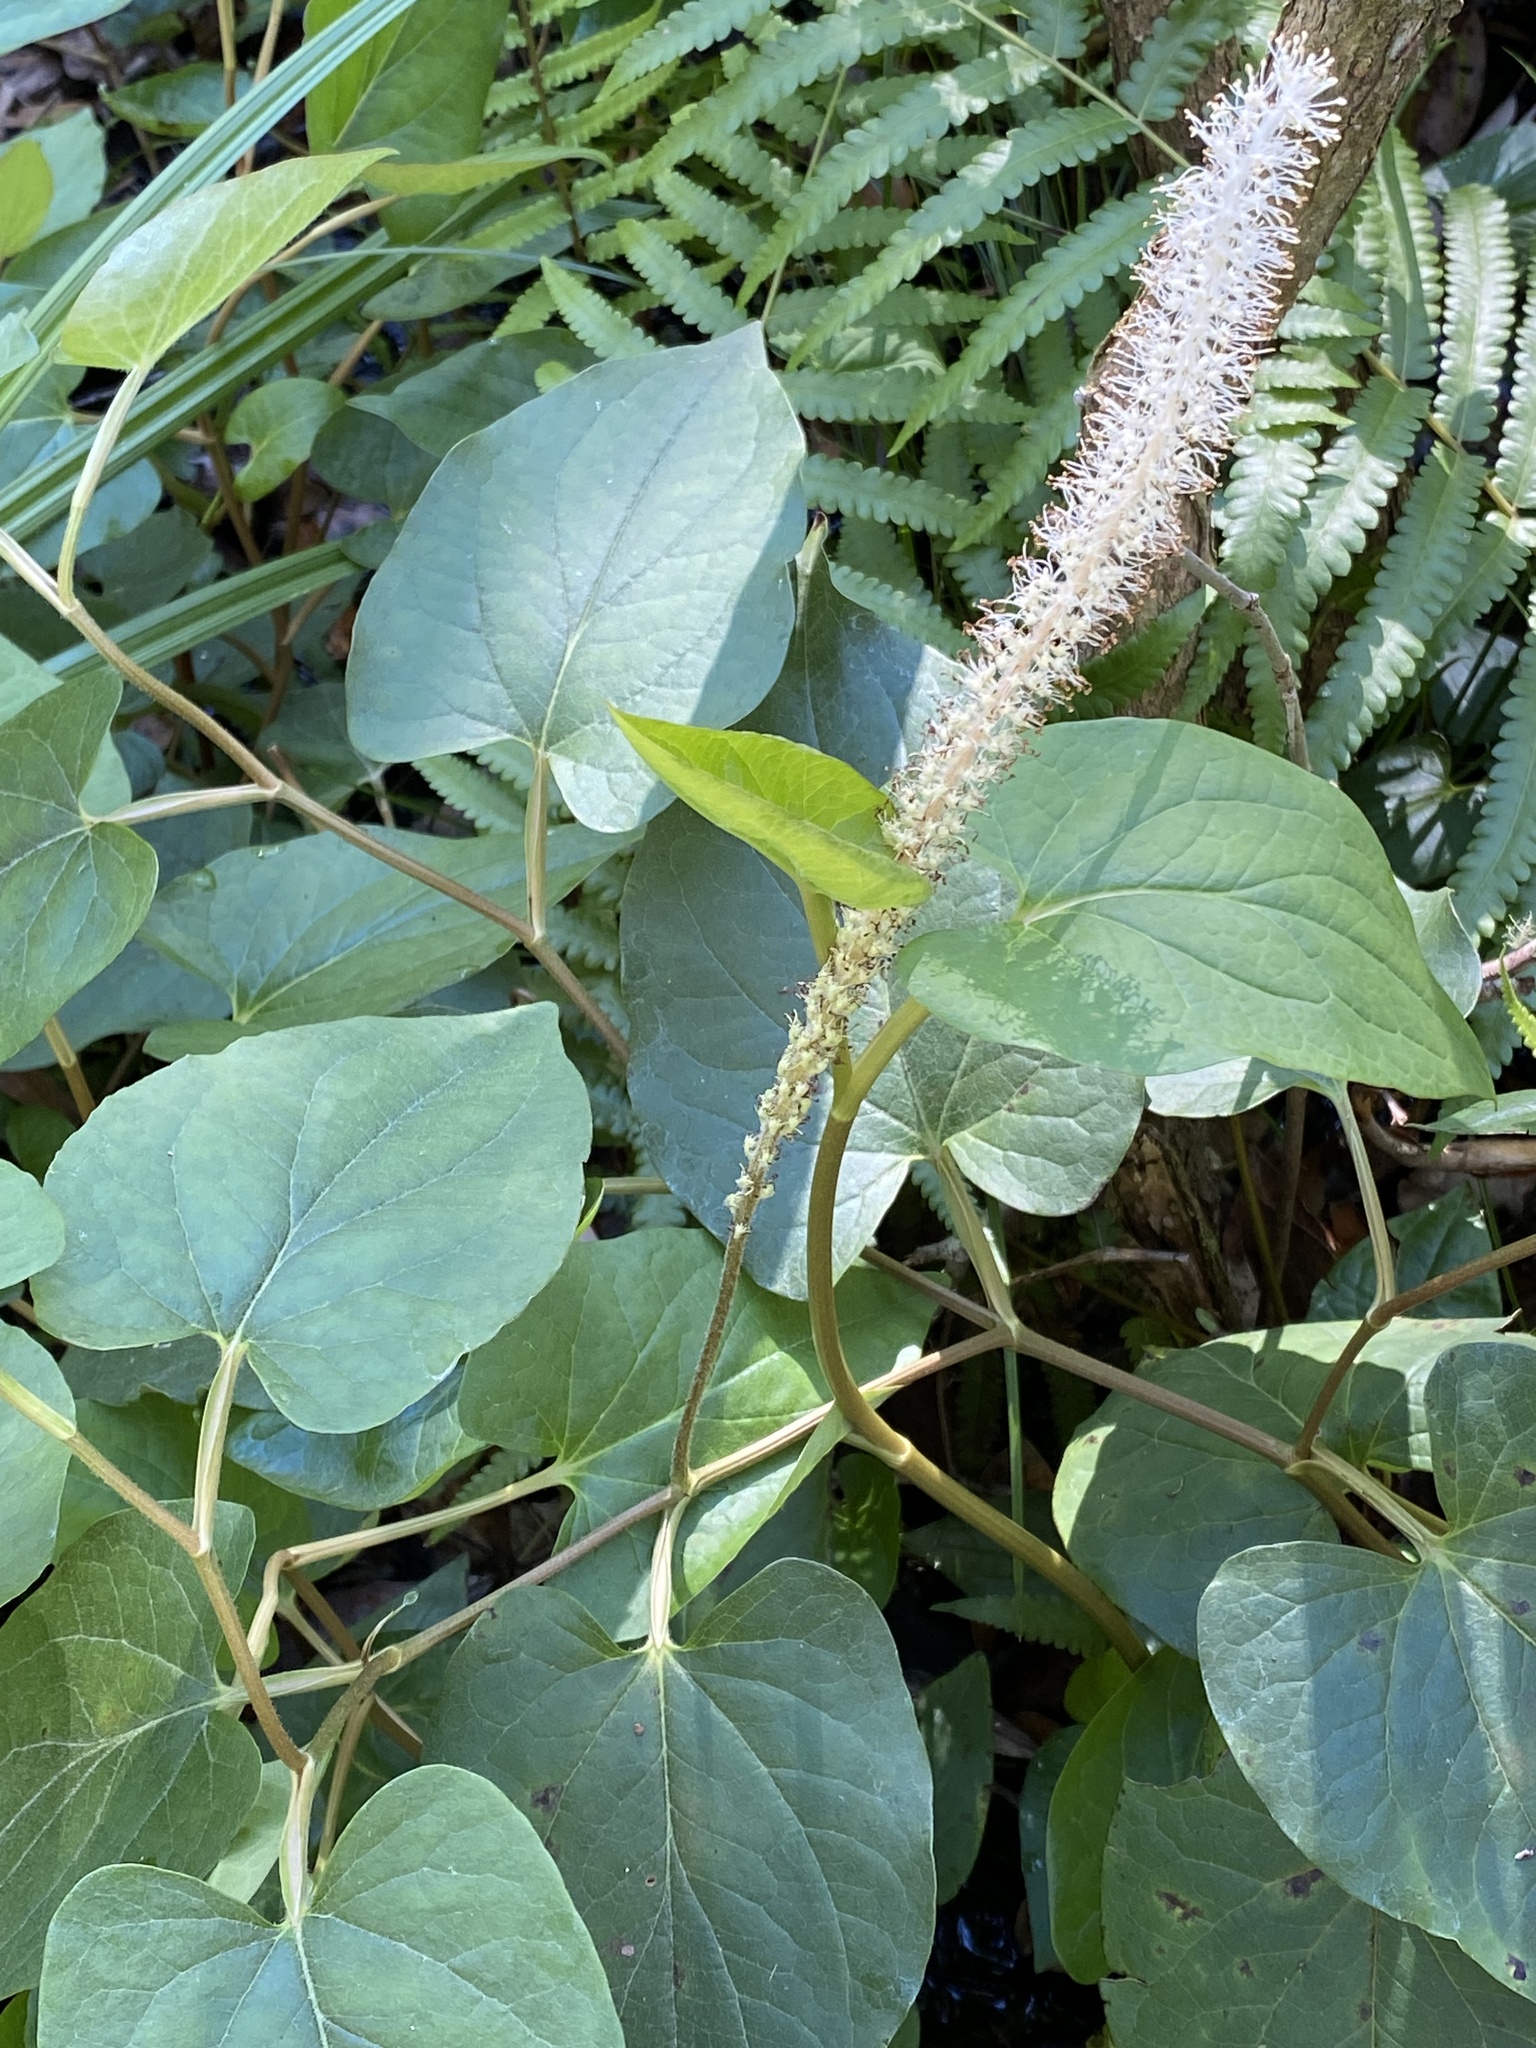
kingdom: Plantae
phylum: Tracheophyta
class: Magnoliopsida
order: Piperales
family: Saururaceae
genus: Saururus
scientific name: Saururus cernuus
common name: Lizard's-tail
